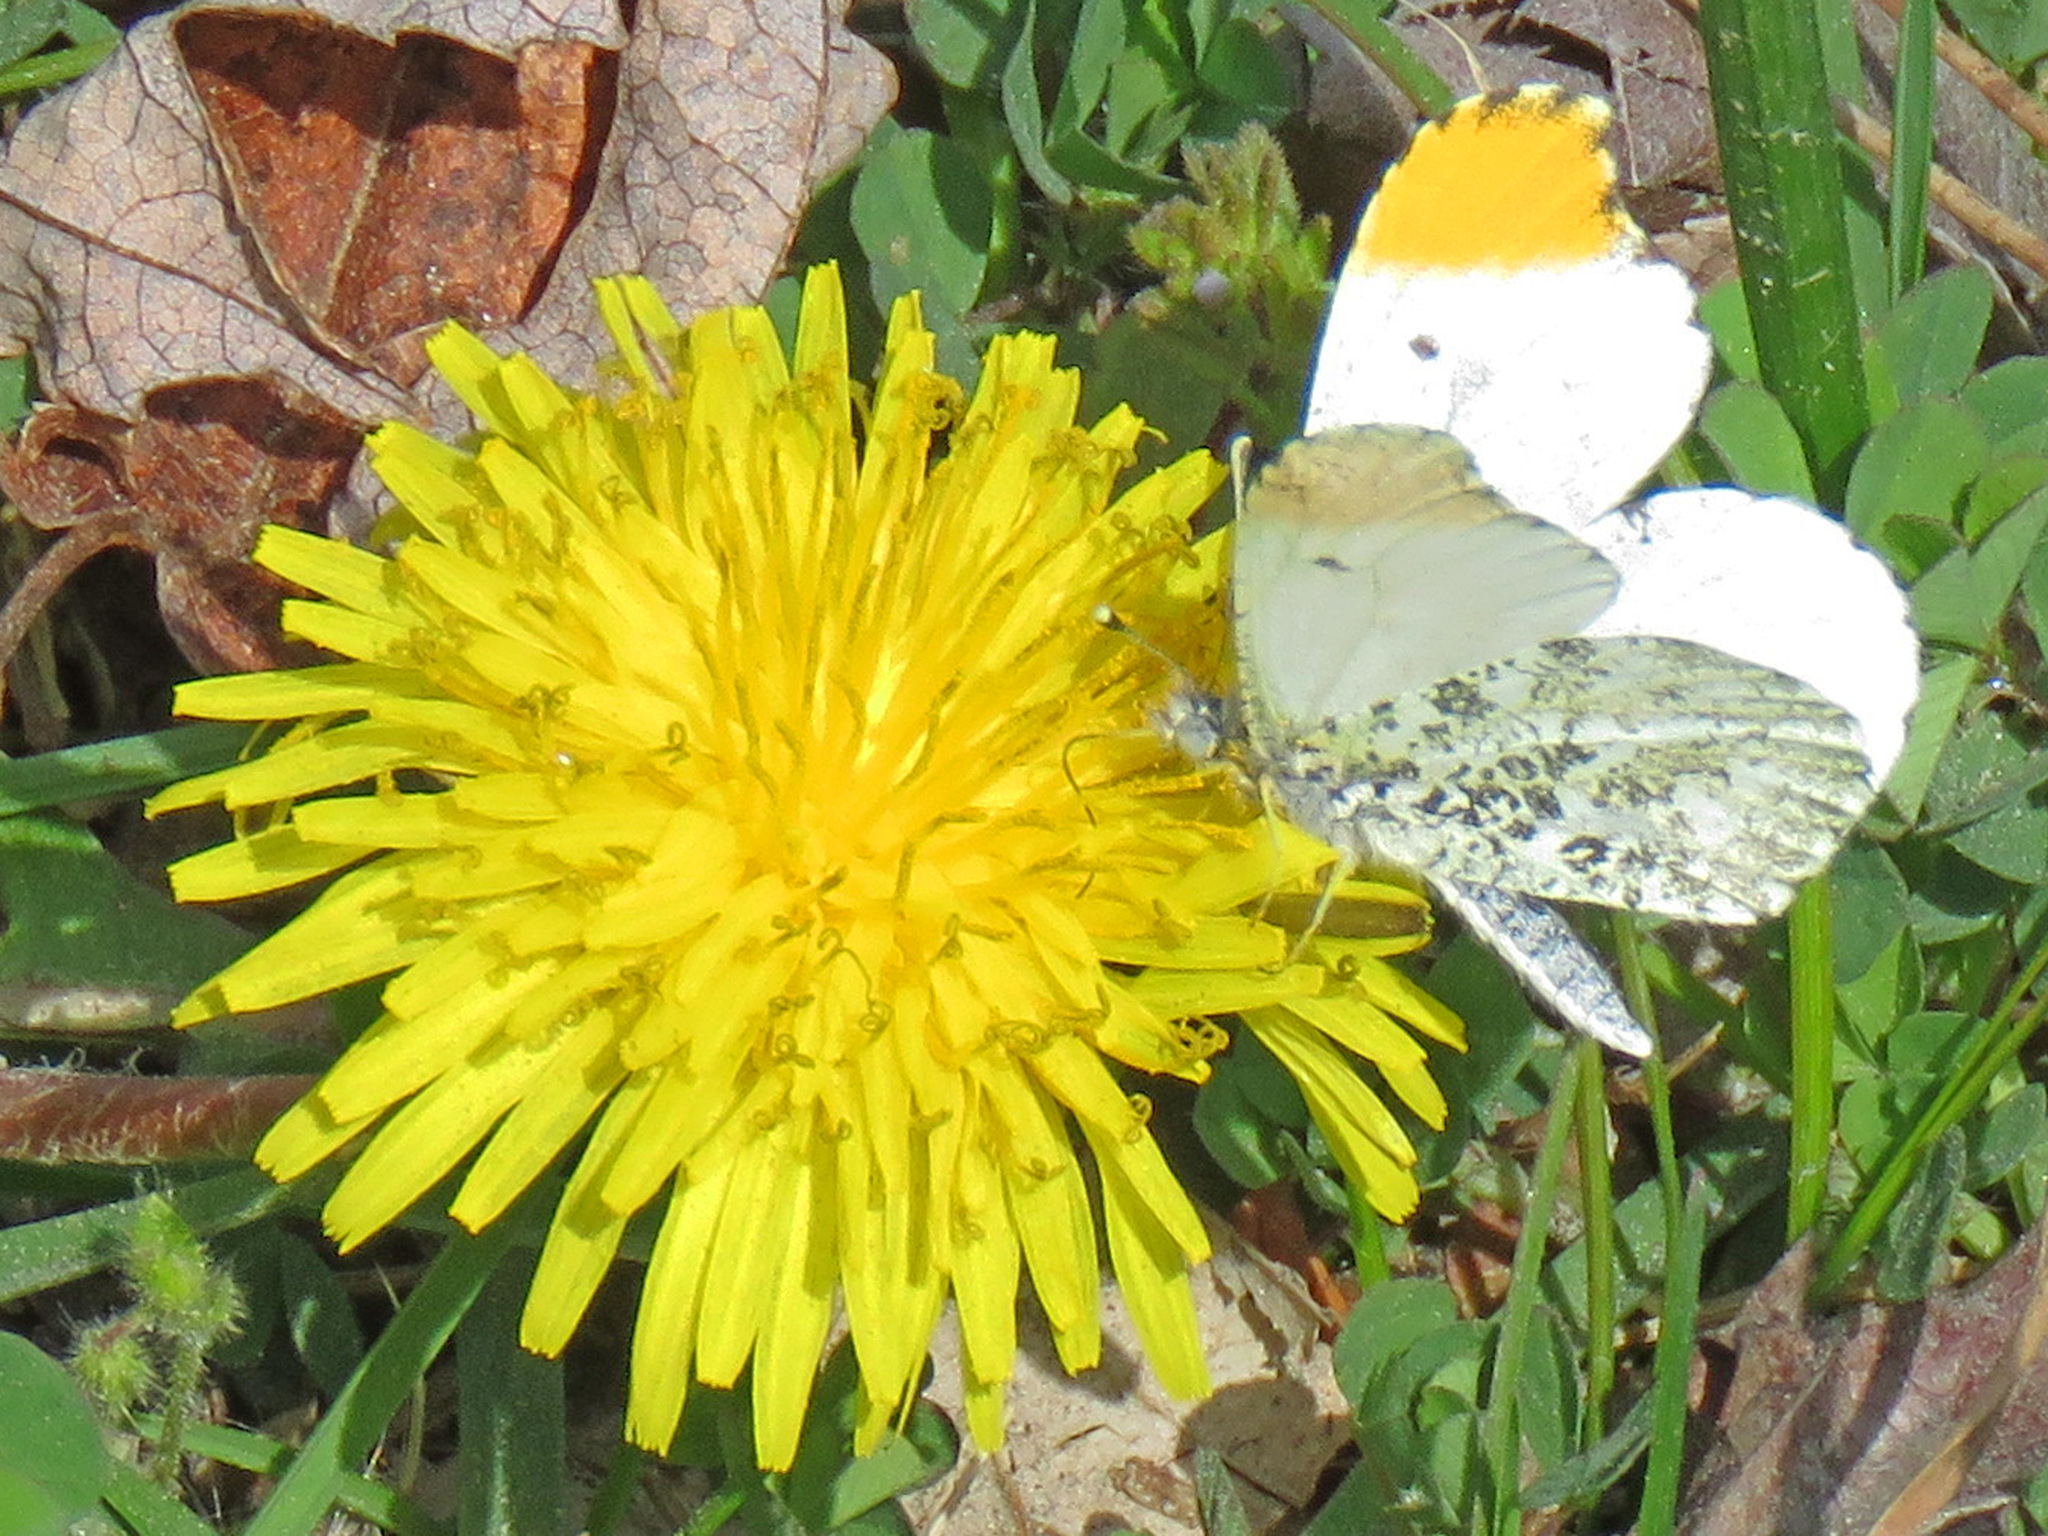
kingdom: Animalia
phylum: Arthropoda
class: Insecta
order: Lepidoptera
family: Pieridae
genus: Anthocharis
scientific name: Anthocharis midea
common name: Falcate orangetip
